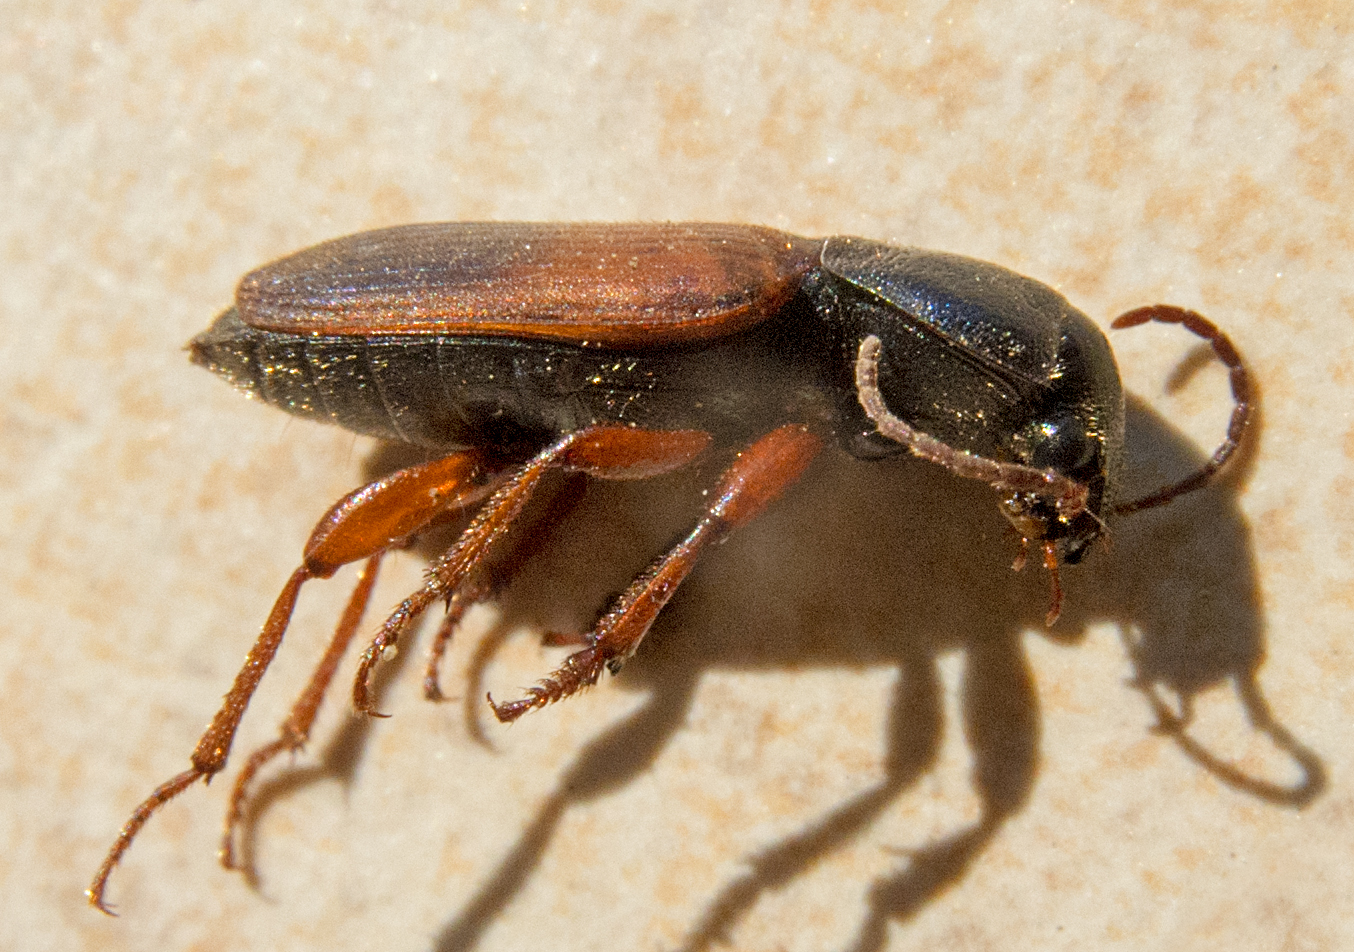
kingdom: Animalia
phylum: Arthropoda
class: Insecta
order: Coleoptera
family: Carabidae
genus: Gynandromorphus
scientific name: Gynandromorphus etruscus
